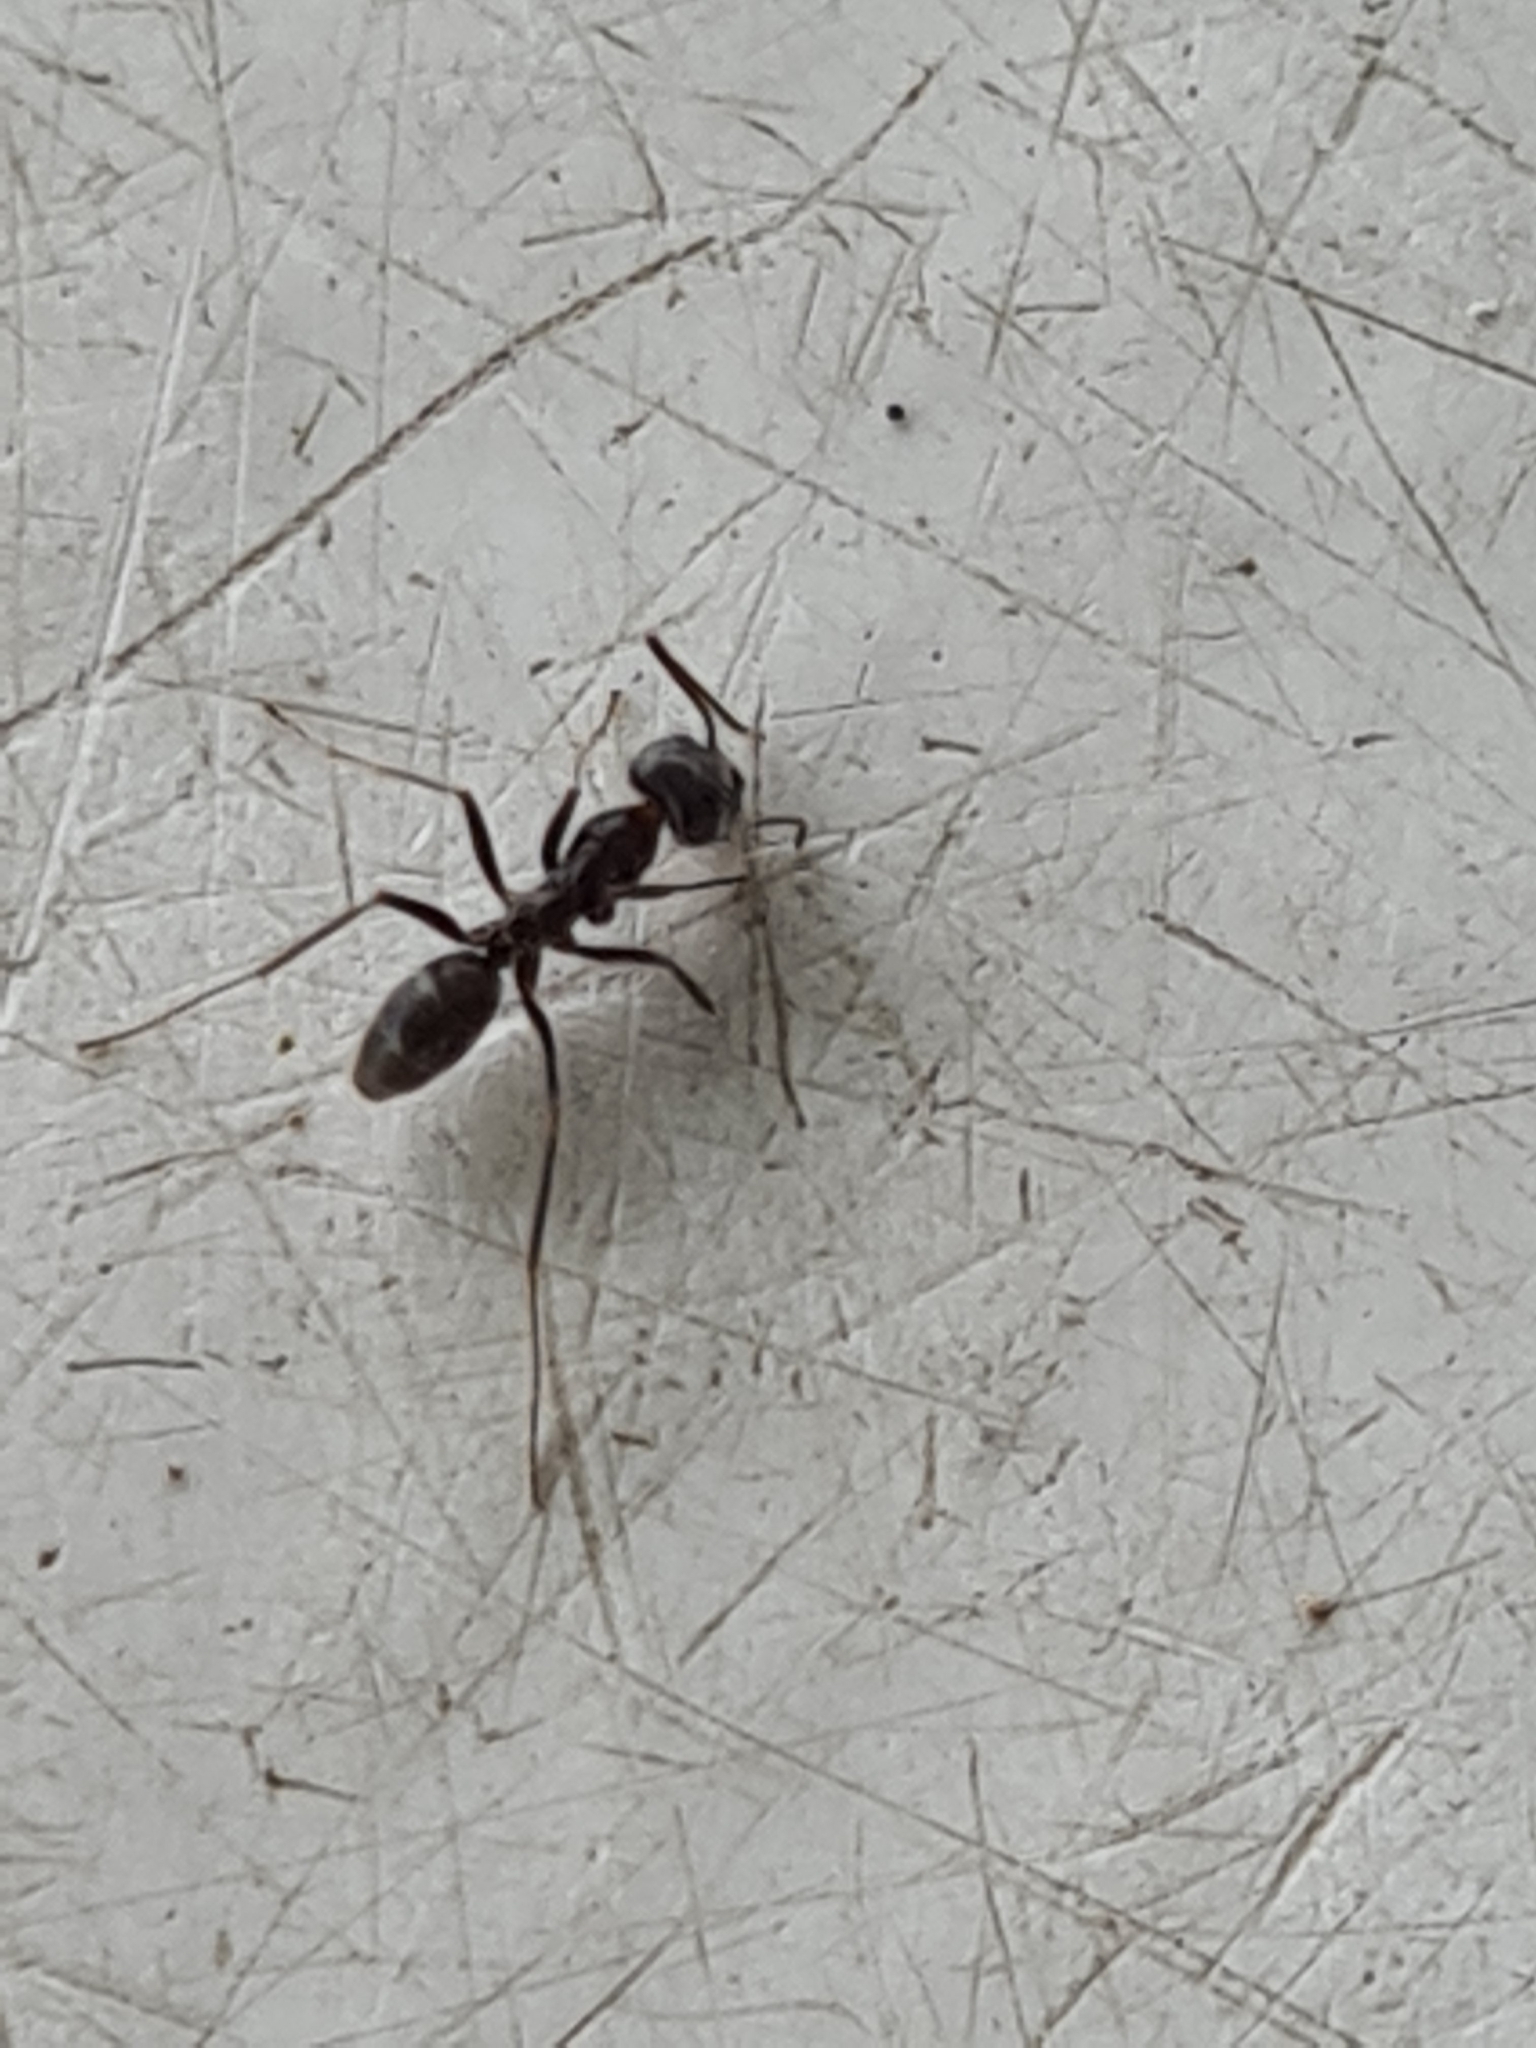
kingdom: Animalia
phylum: Arthropoda
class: Insecta
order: Hymenoptera
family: Formicidae
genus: Dorymyrmex
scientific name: Dorymyrmex
